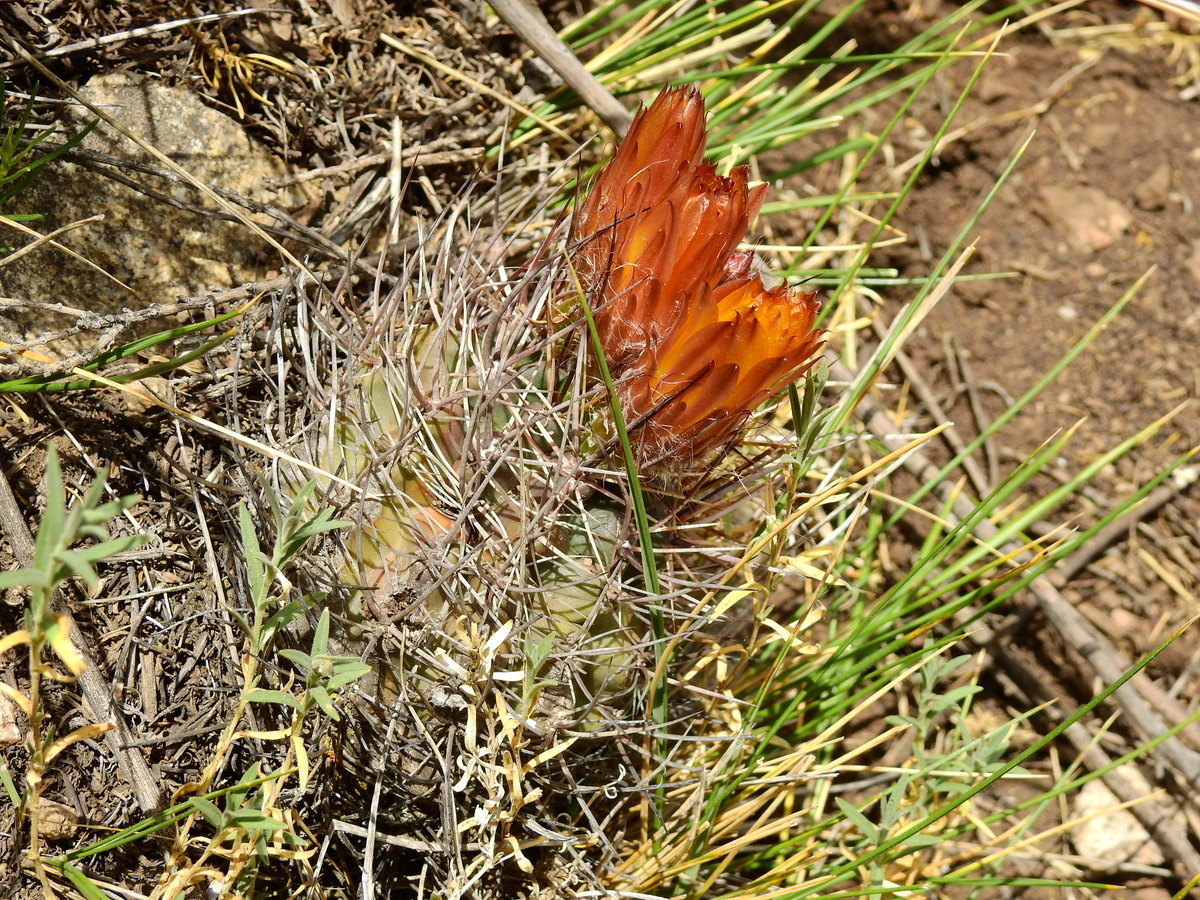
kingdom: Plantae
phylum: Tracheophyta
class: Magnoliopsida
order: Caryophyllales
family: Cactaceae
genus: Eriosyce
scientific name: Eriosyce strausiana
